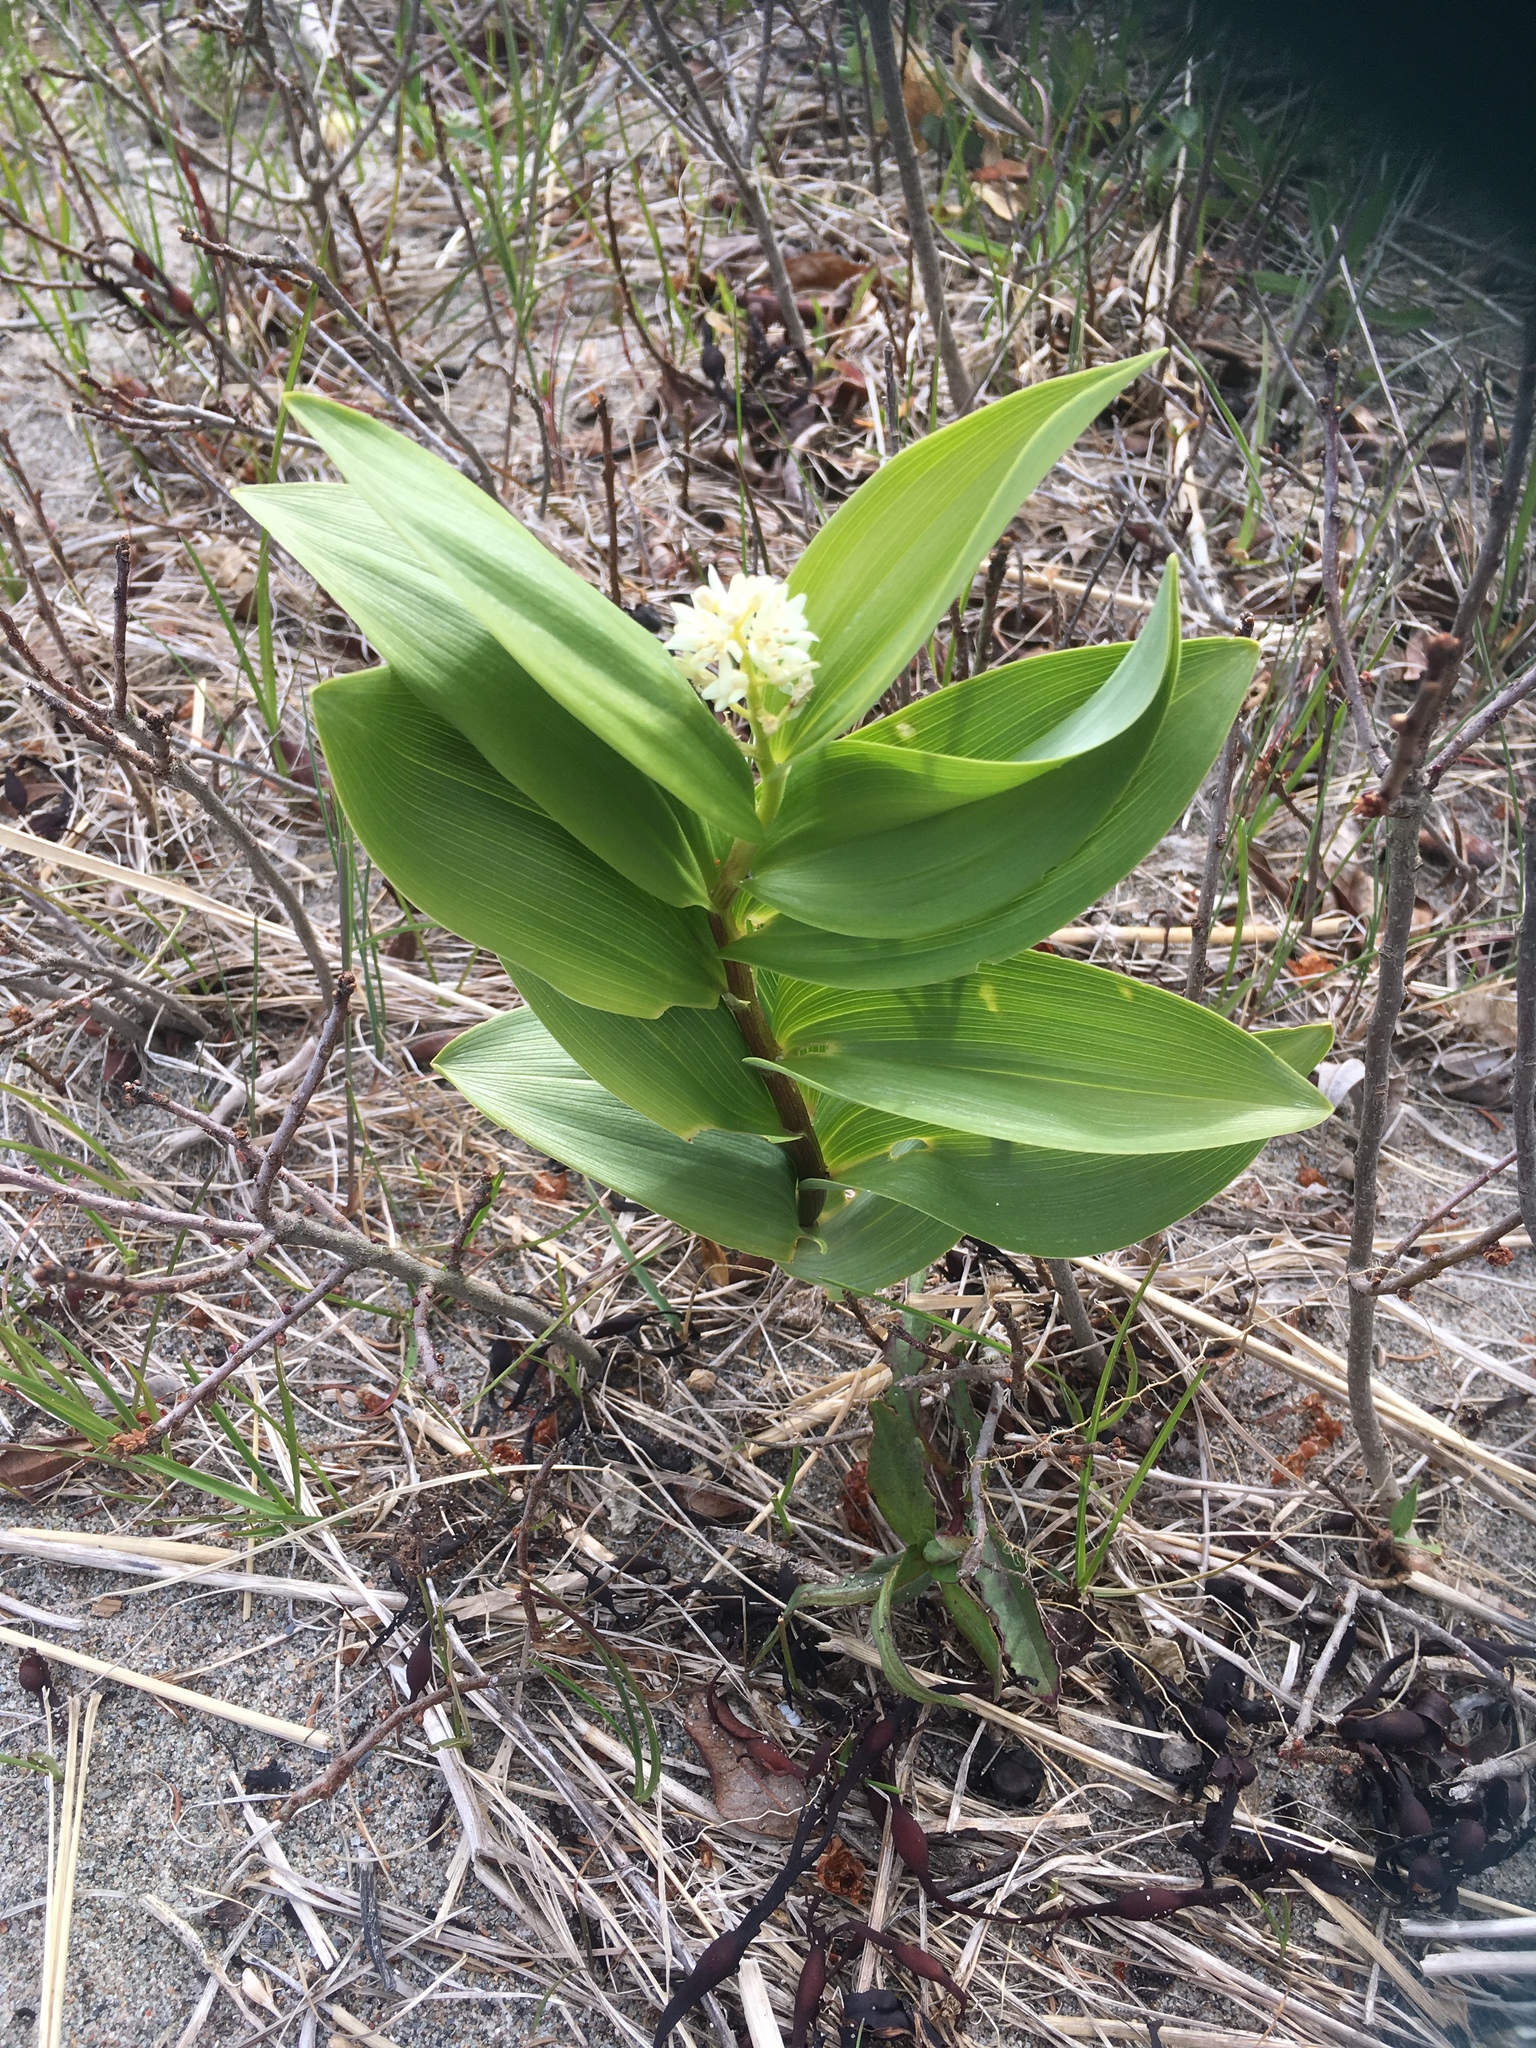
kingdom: Plantae
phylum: Tracheophyta
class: Liliopsida
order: Asparagales
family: Asparagaceae
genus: Maianthemum
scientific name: Maianthemum stellatum
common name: Little false solomon's seal
